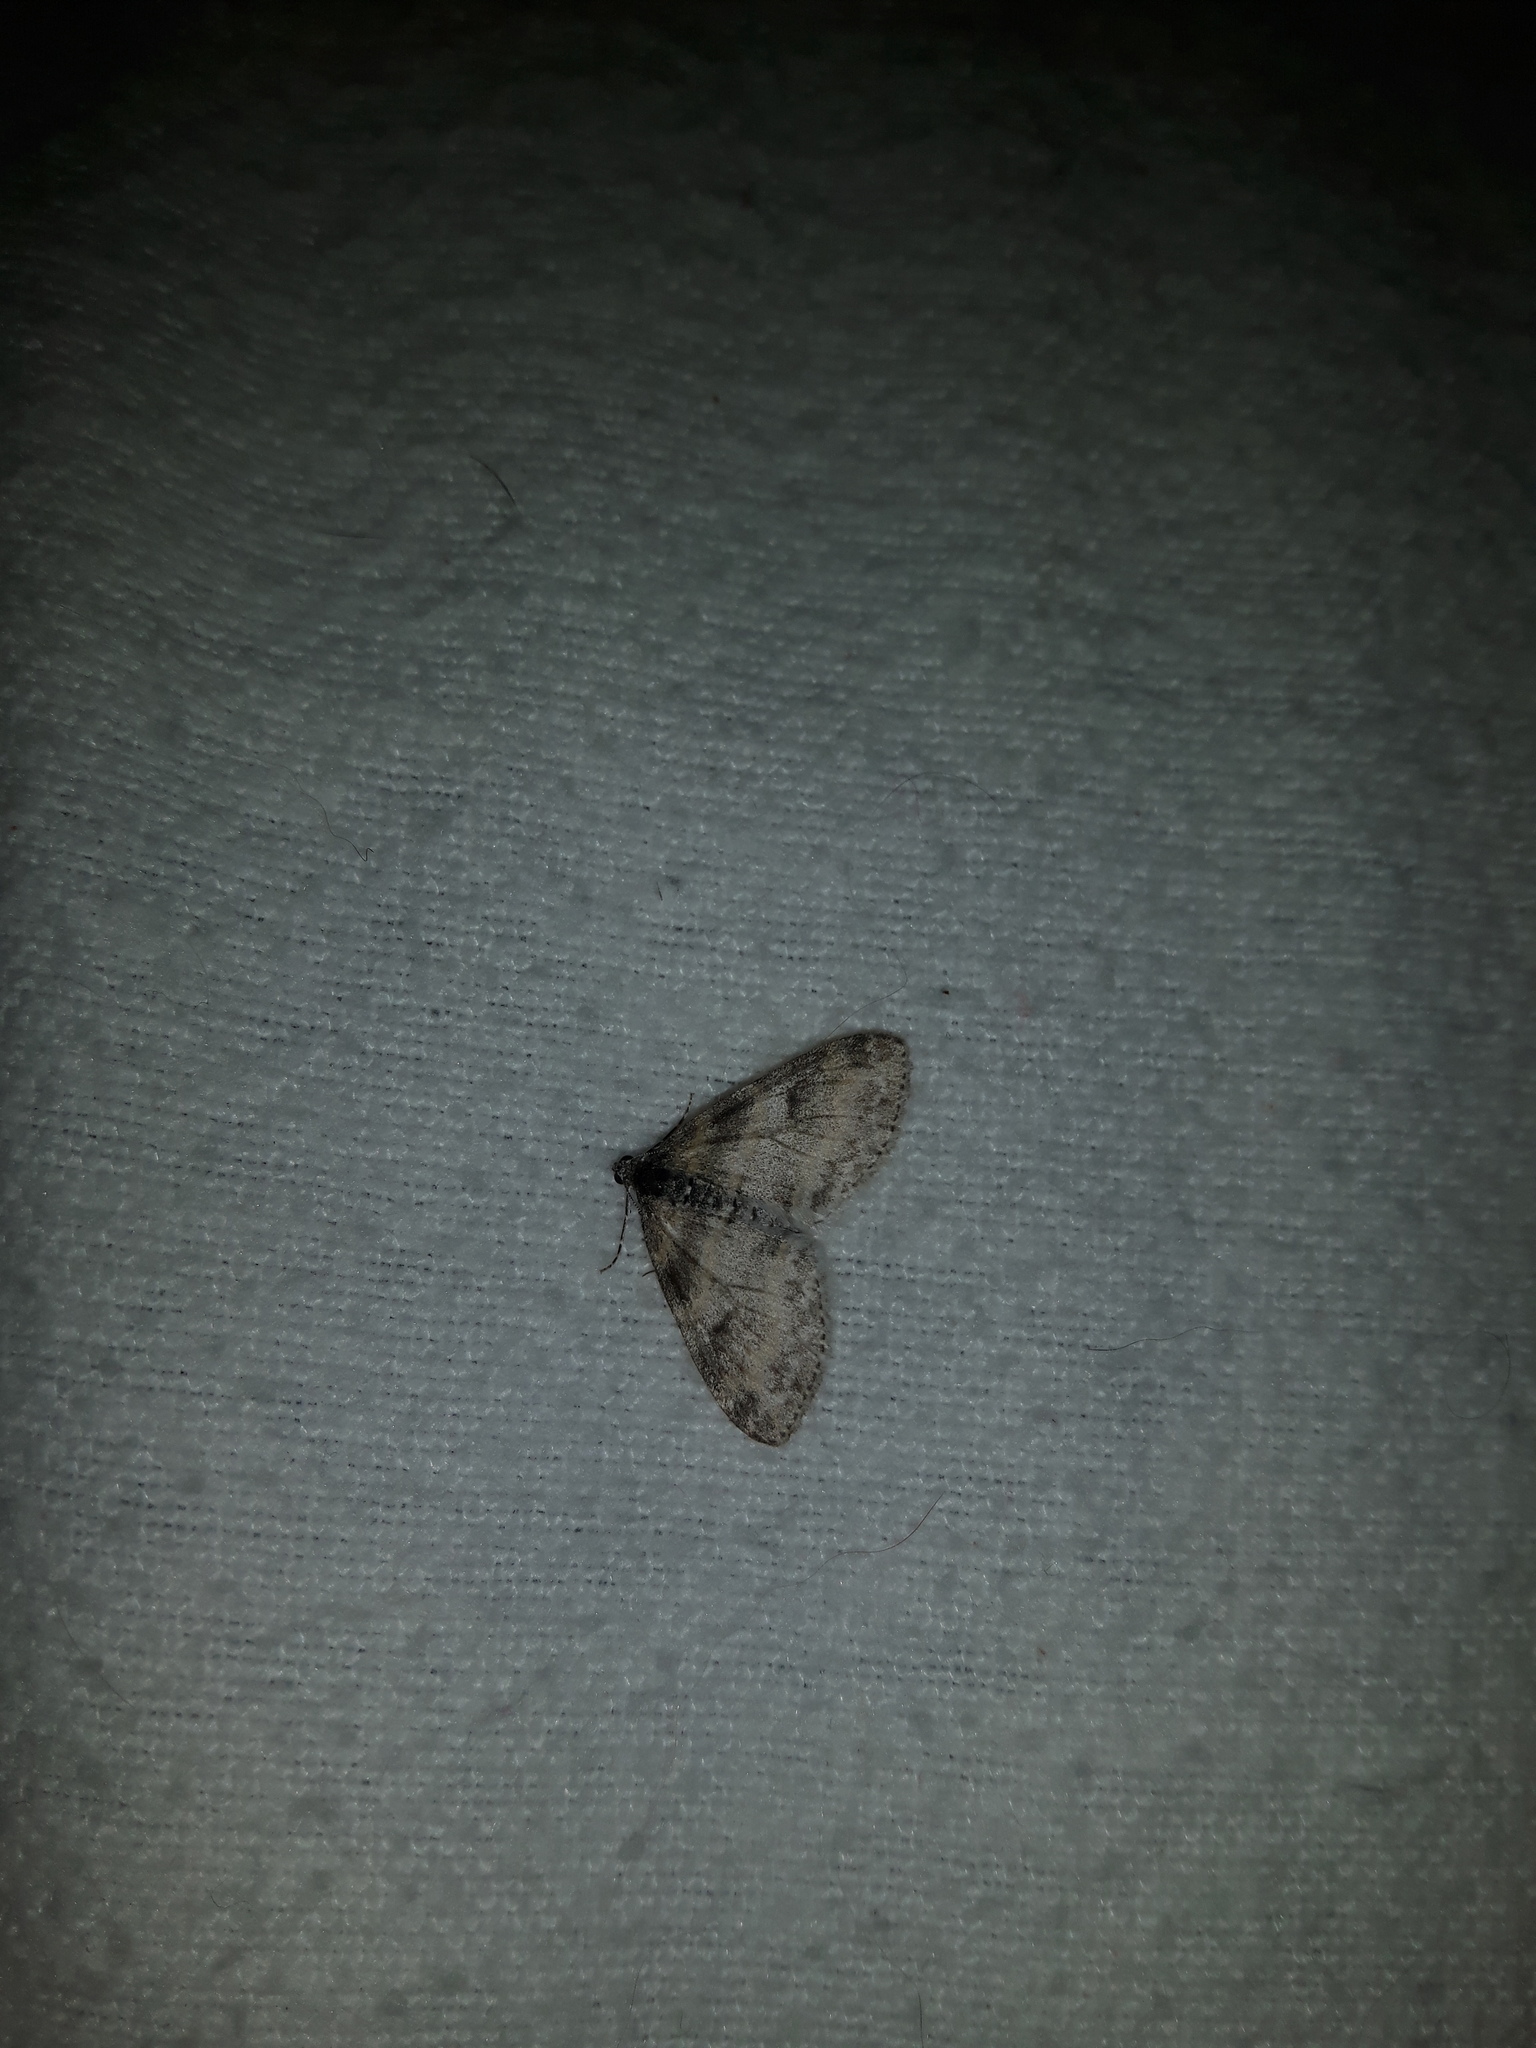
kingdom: Animalia
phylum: Arthropoda
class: Insecta
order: Lepidoptera
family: Geometridae
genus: Lobophora
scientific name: Lobophora nivigerata
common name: Powdered bigwing
